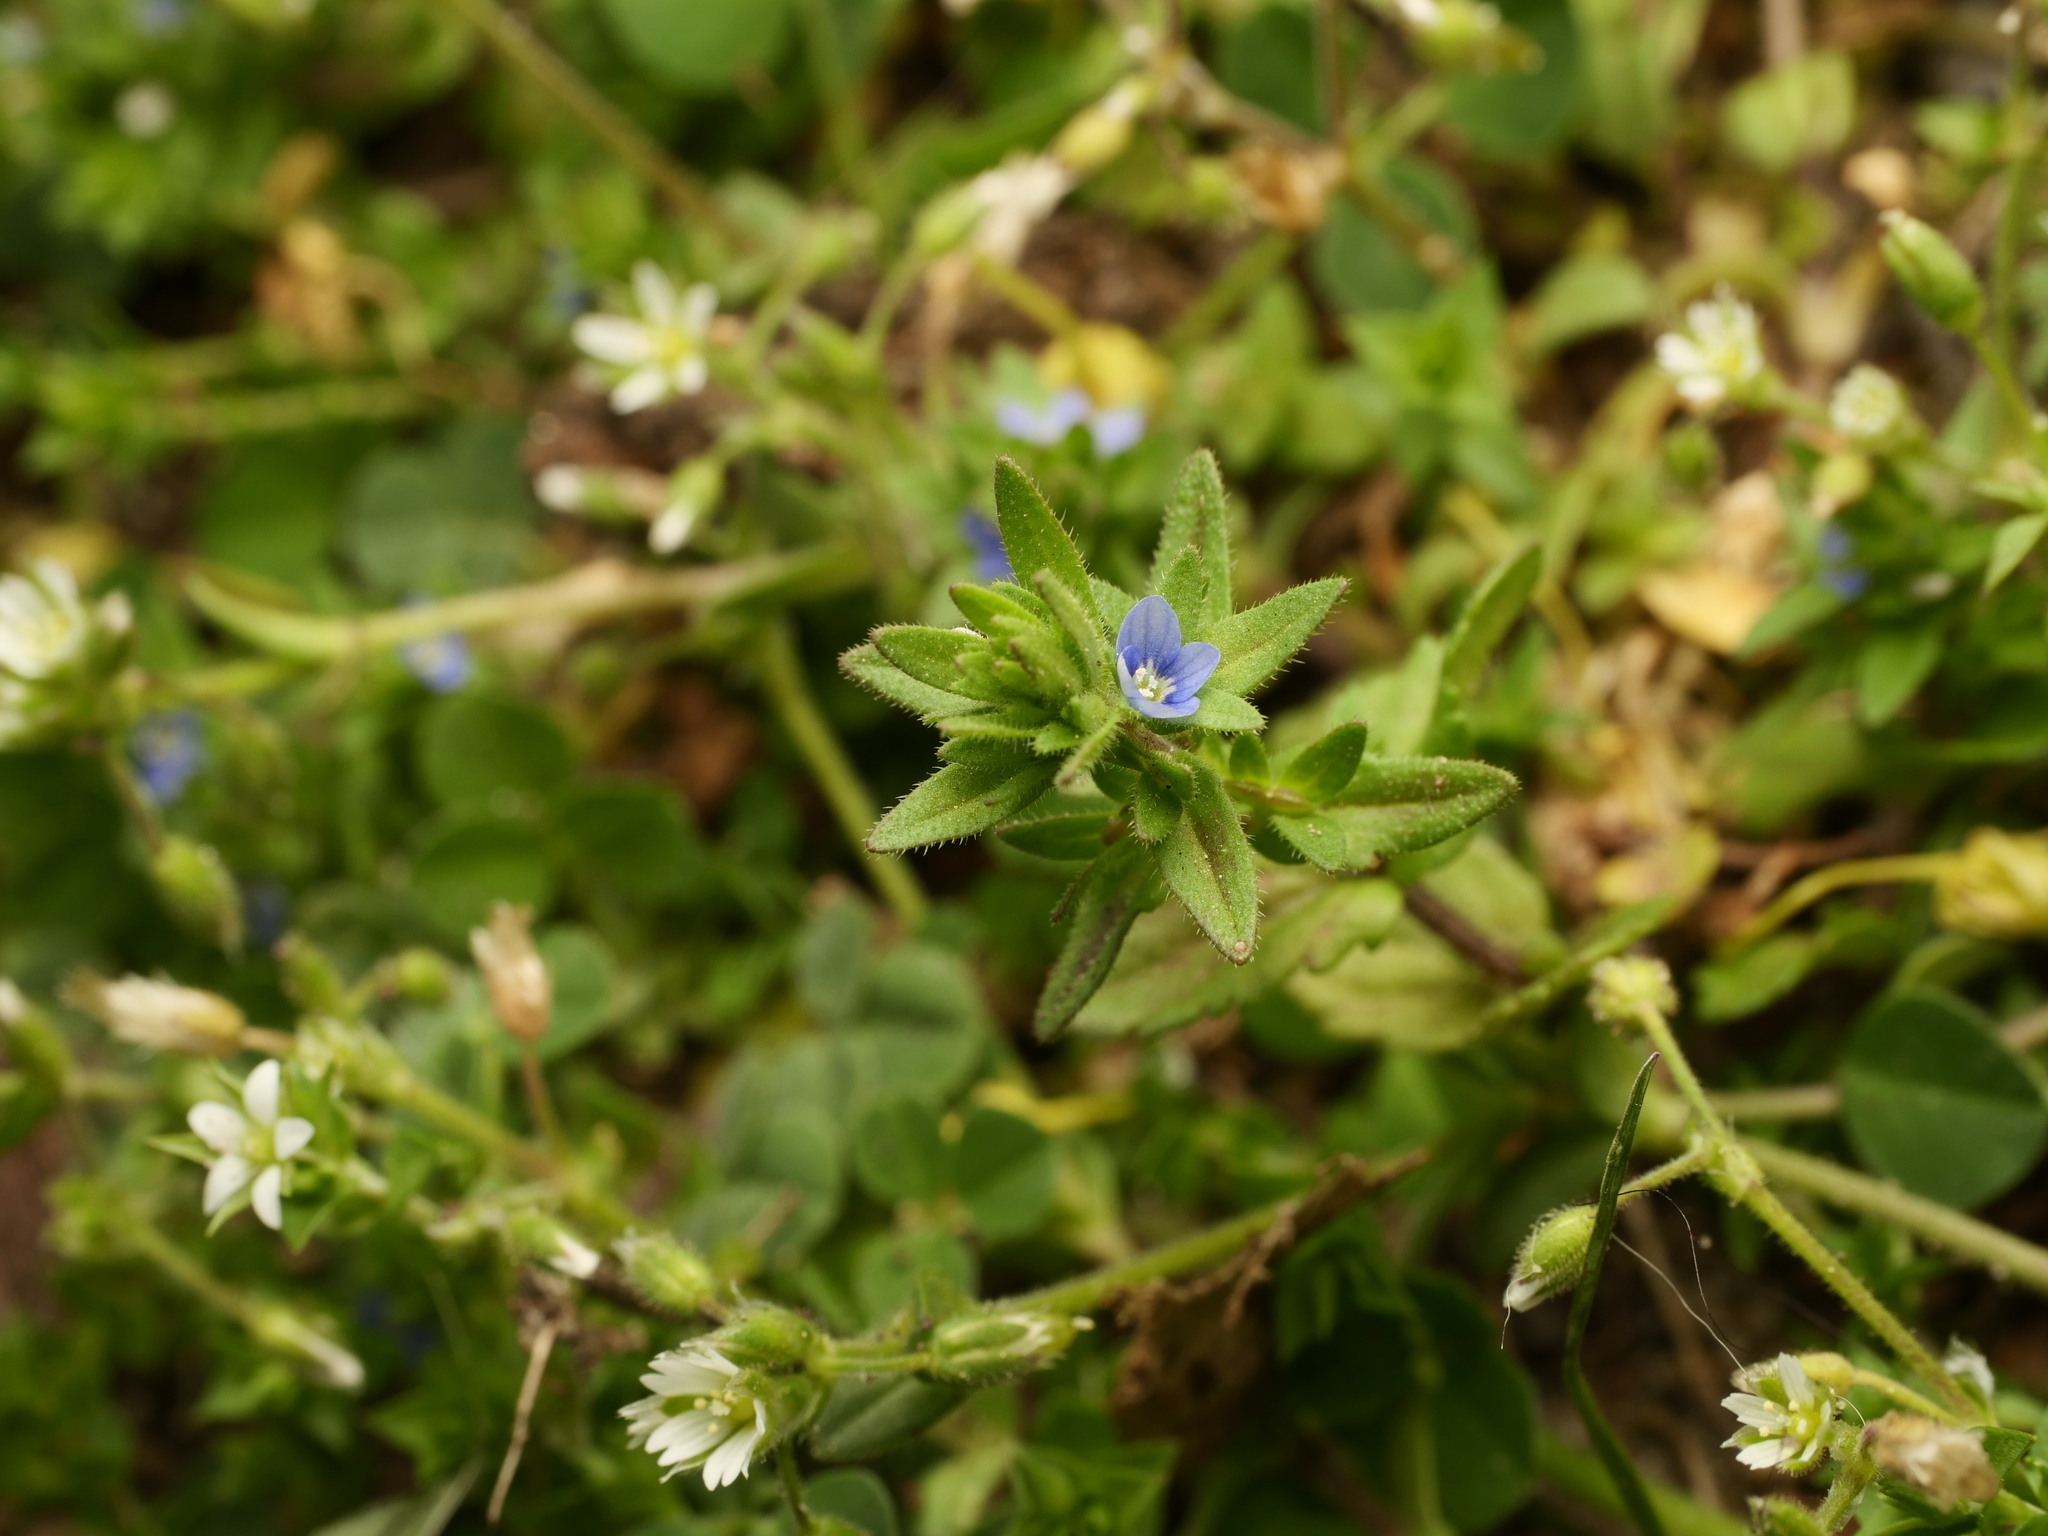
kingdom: Plantae
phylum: Tracheophyta
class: Magnoliopsida
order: Lamiales
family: Plantaginaceae
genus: Veronica
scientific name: Veronica arvensis
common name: Corn speedwell
